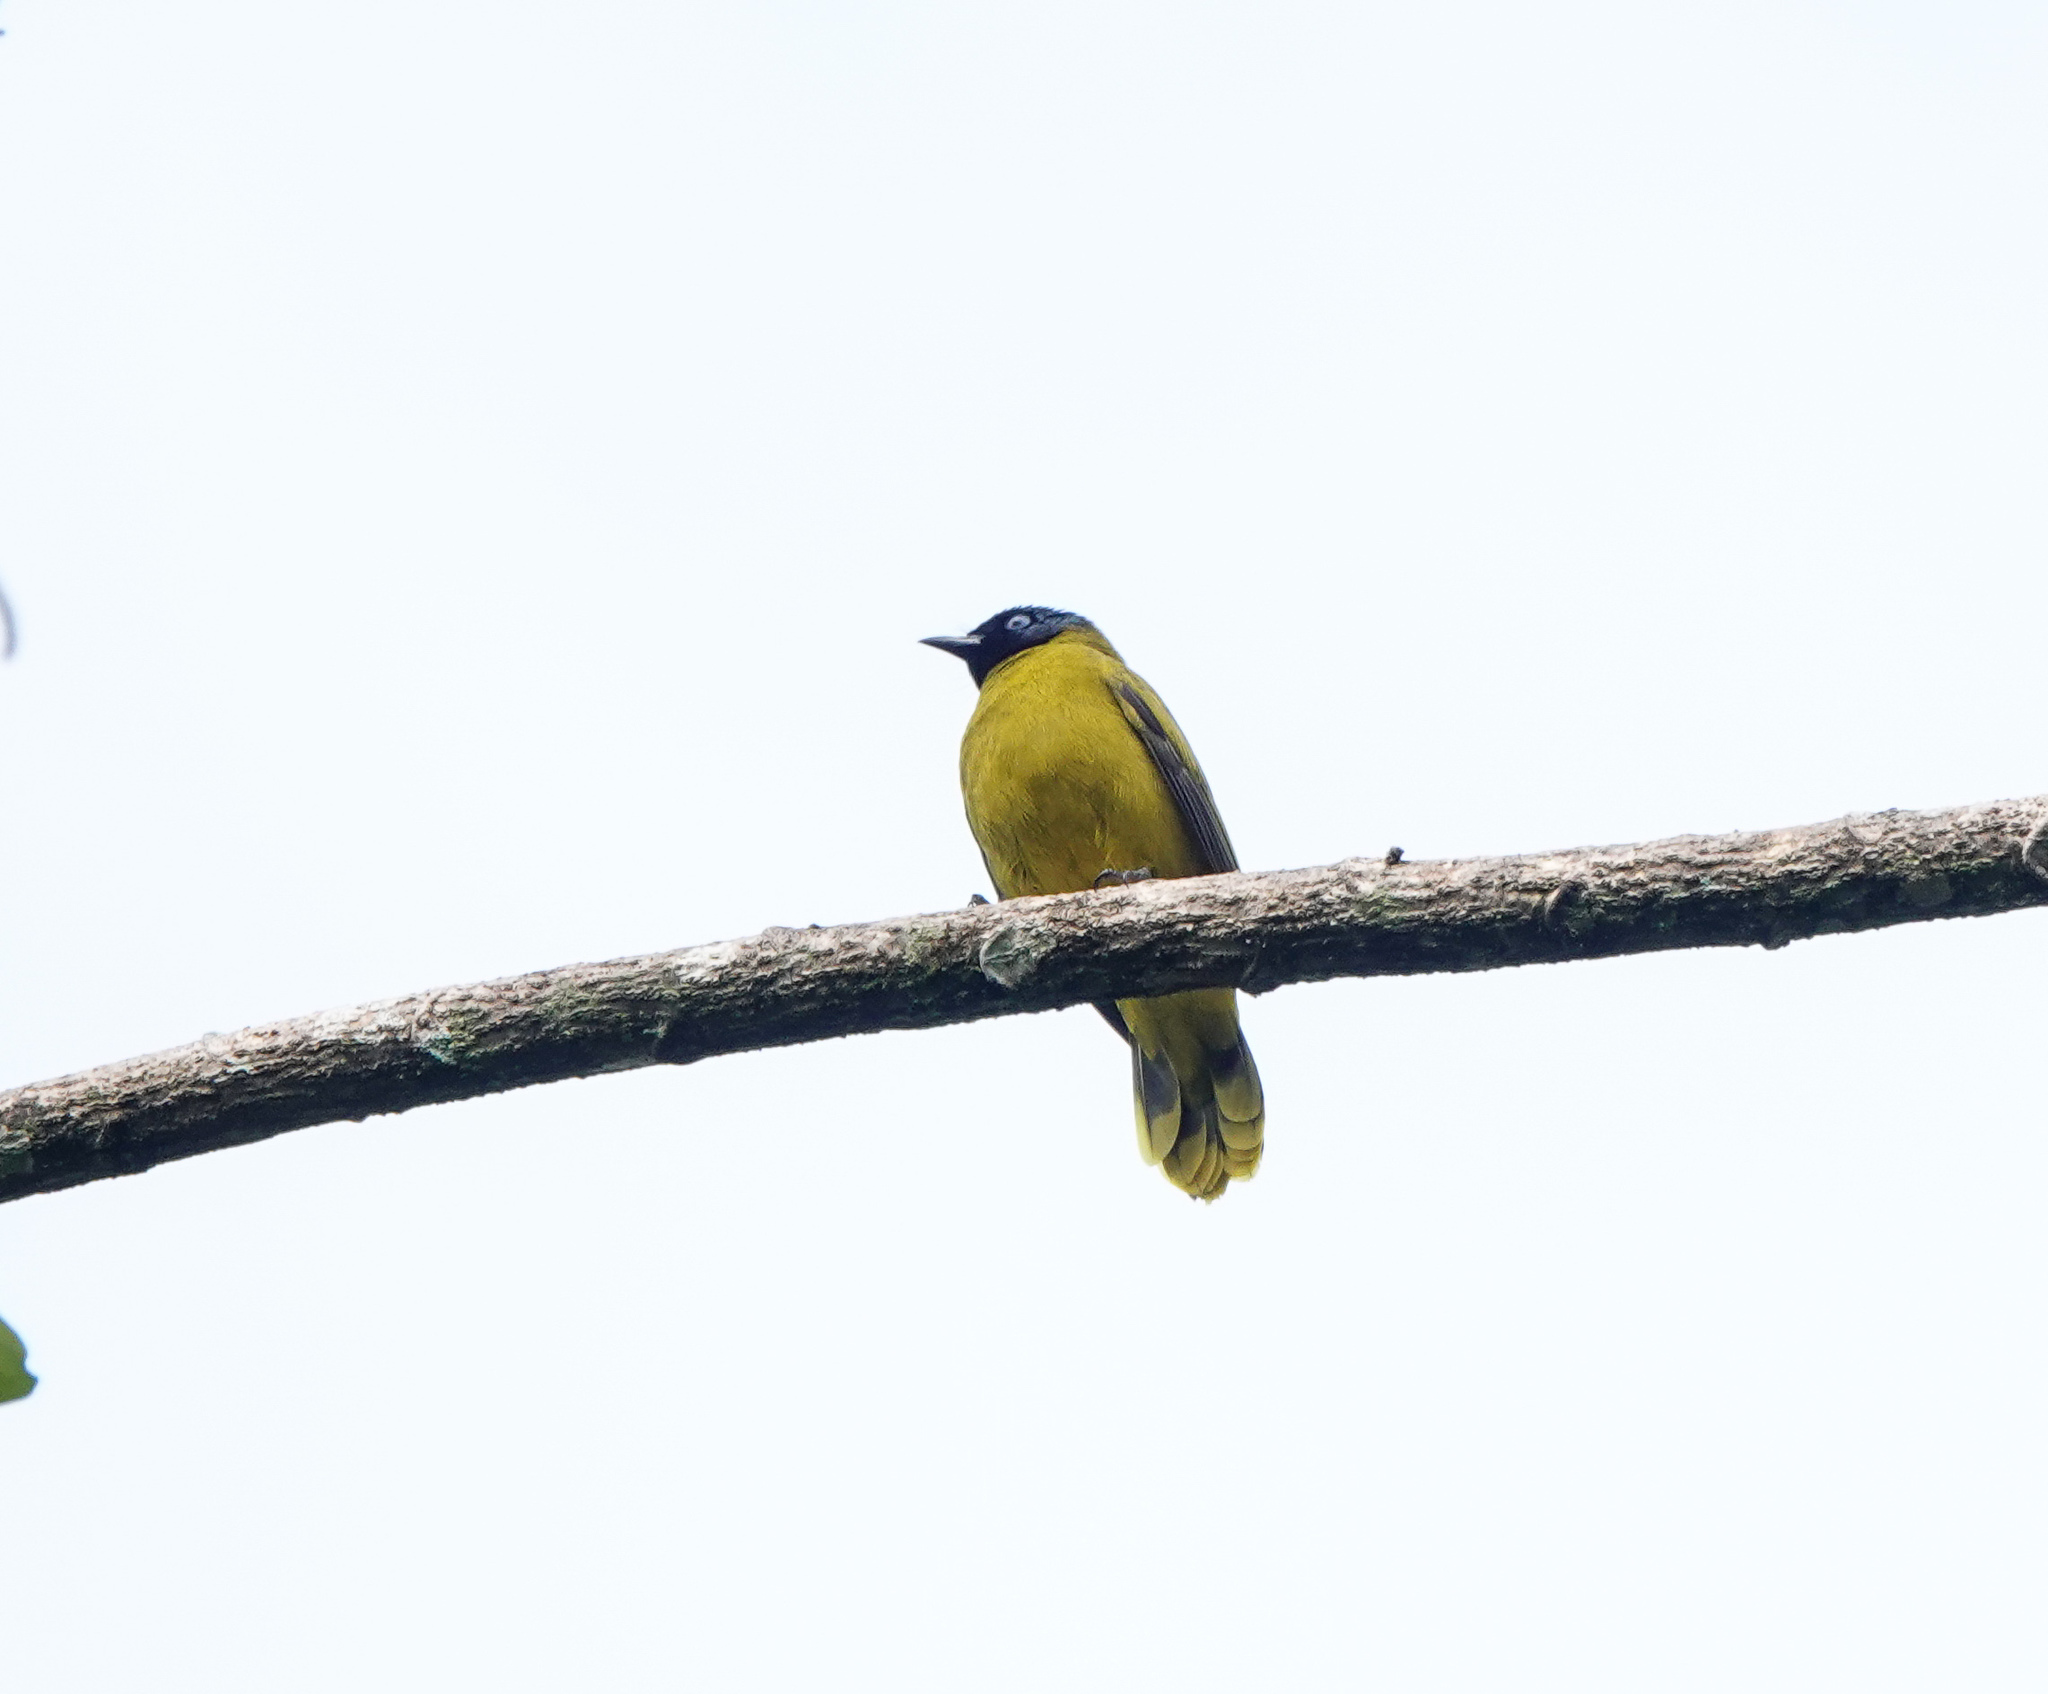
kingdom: Animalia
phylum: Chordata
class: Aves
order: Passeriformes
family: Pycnonotidae
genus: Microtarsus
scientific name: Microtarsus
